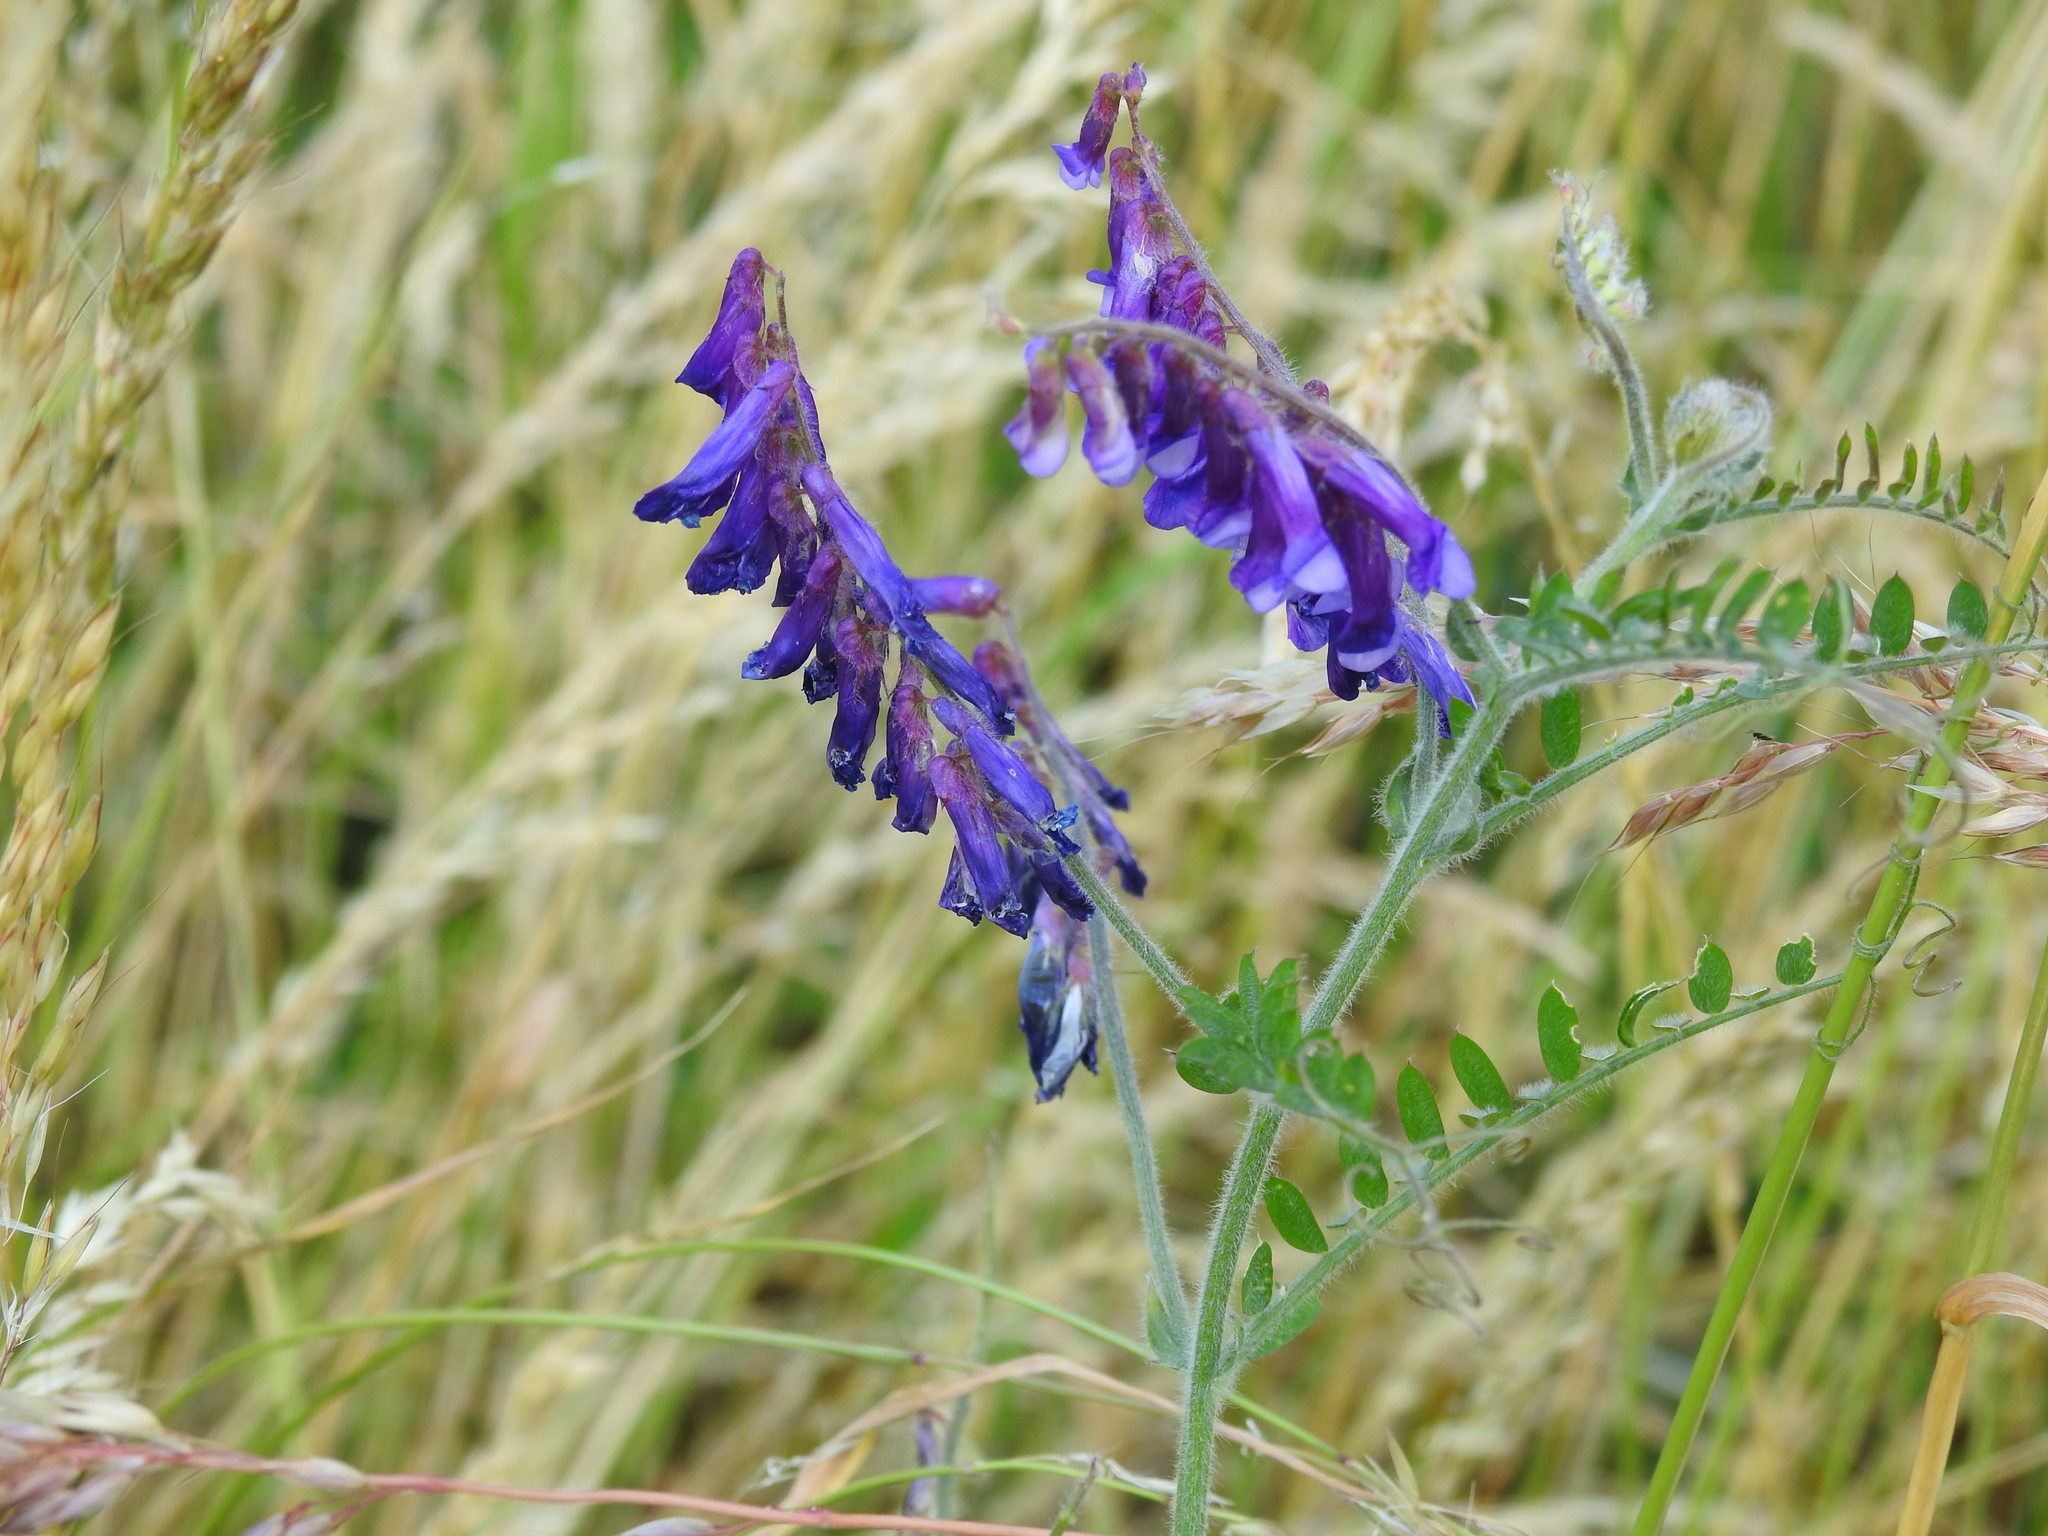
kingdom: Plantae
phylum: Tracheophyta
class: Magnoliopsida
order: Fabales
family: Fabaceae
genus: Vicia
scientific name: Vicia villosa
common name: Fodder vetch
